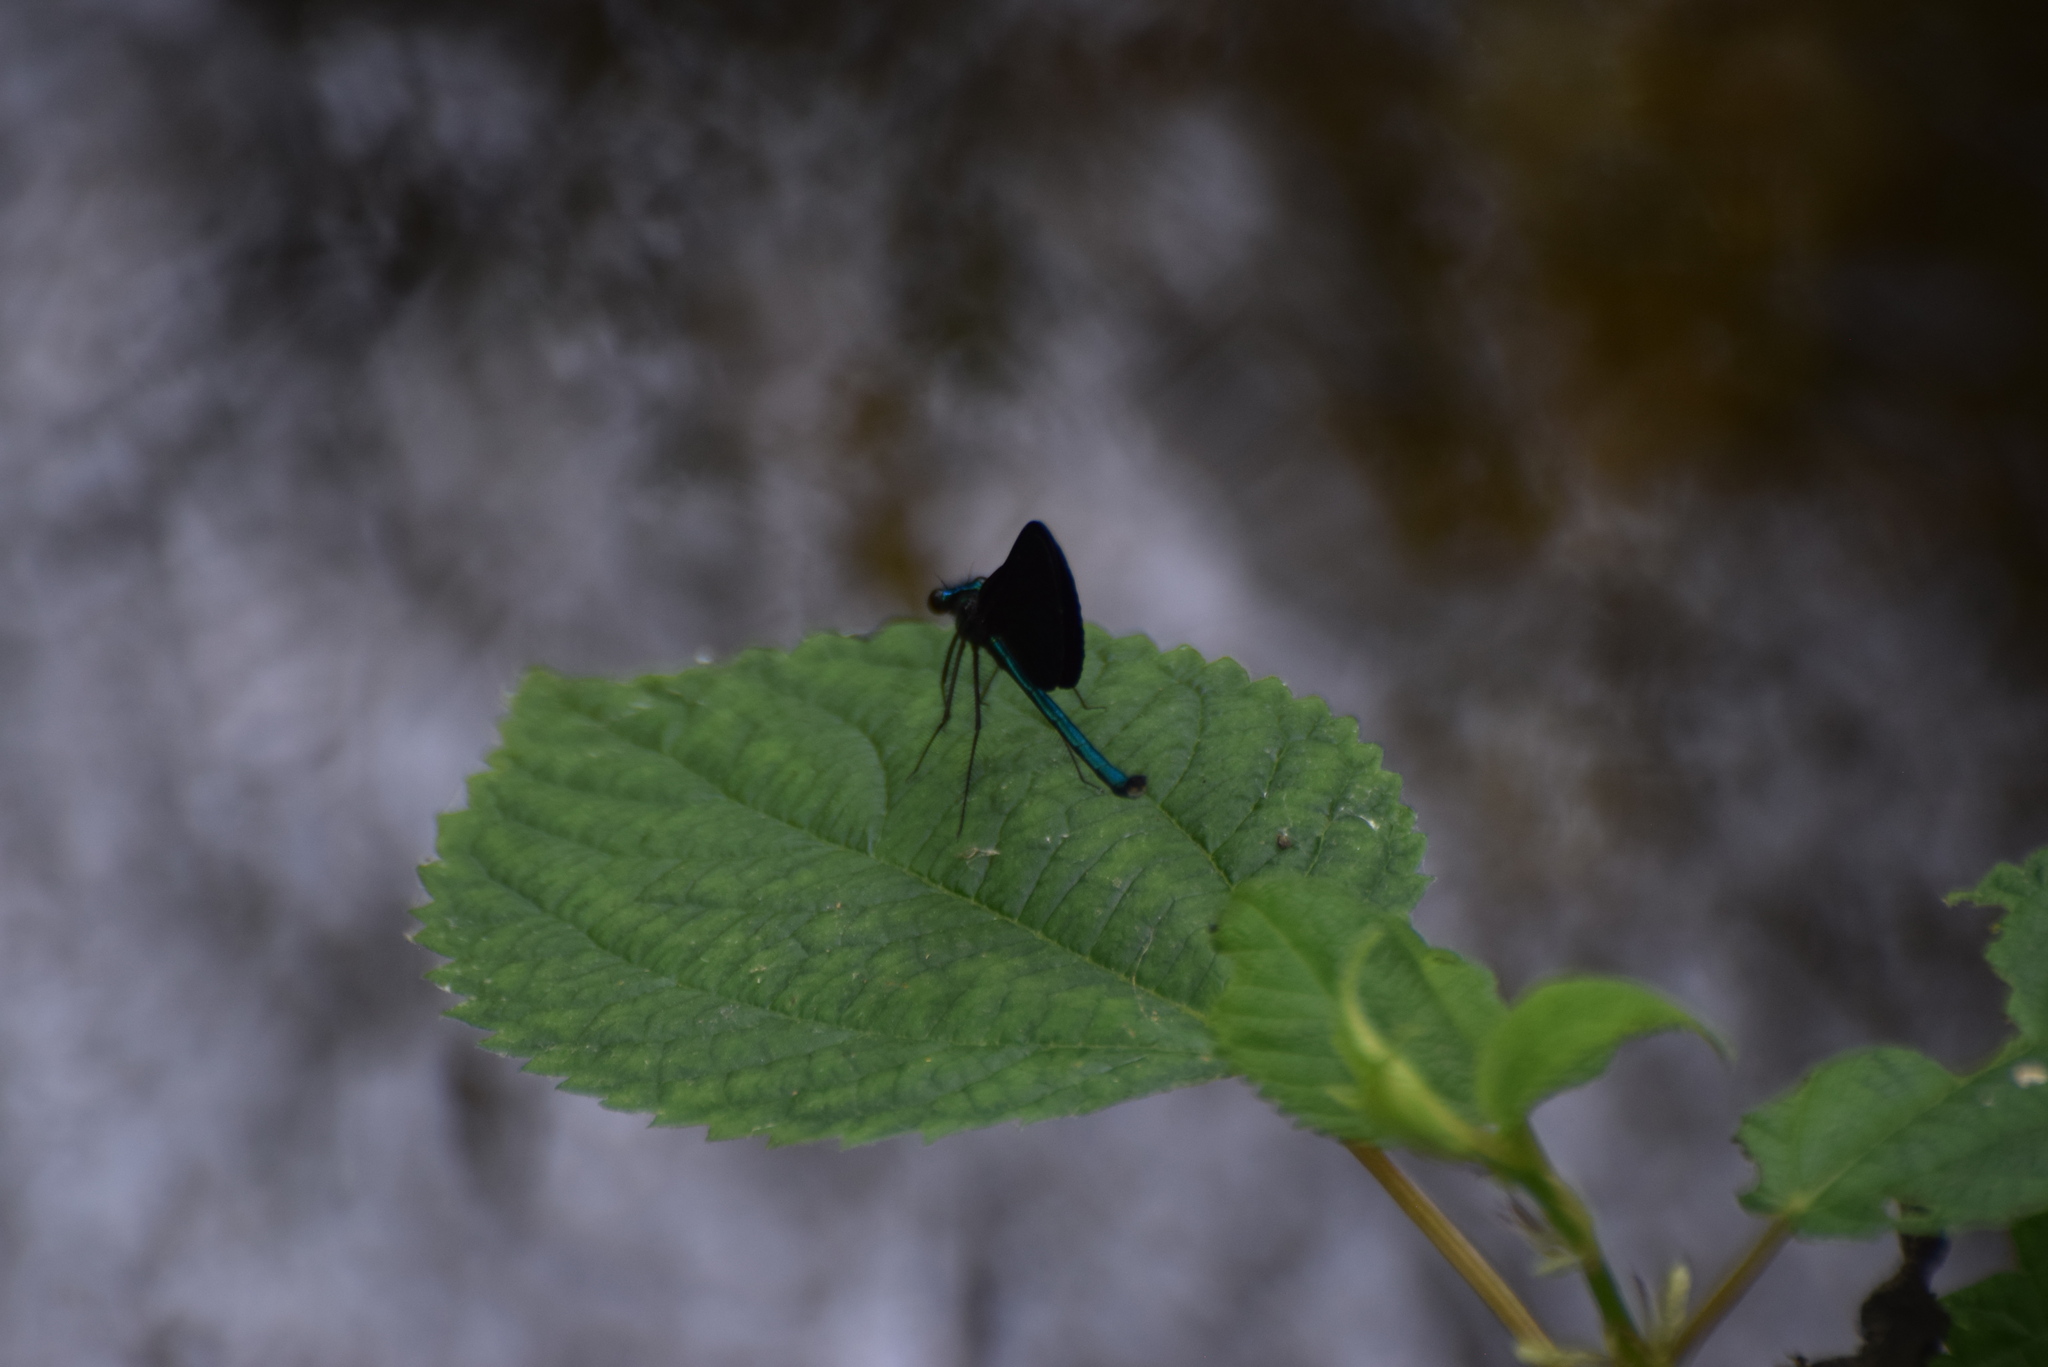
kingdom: Animalia
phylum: Arthropoda
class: Insecta
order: Odonata
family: Calopterygidae
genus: Calopteryx
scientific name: Calopteryx maculata
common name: Ebony jewelwing
